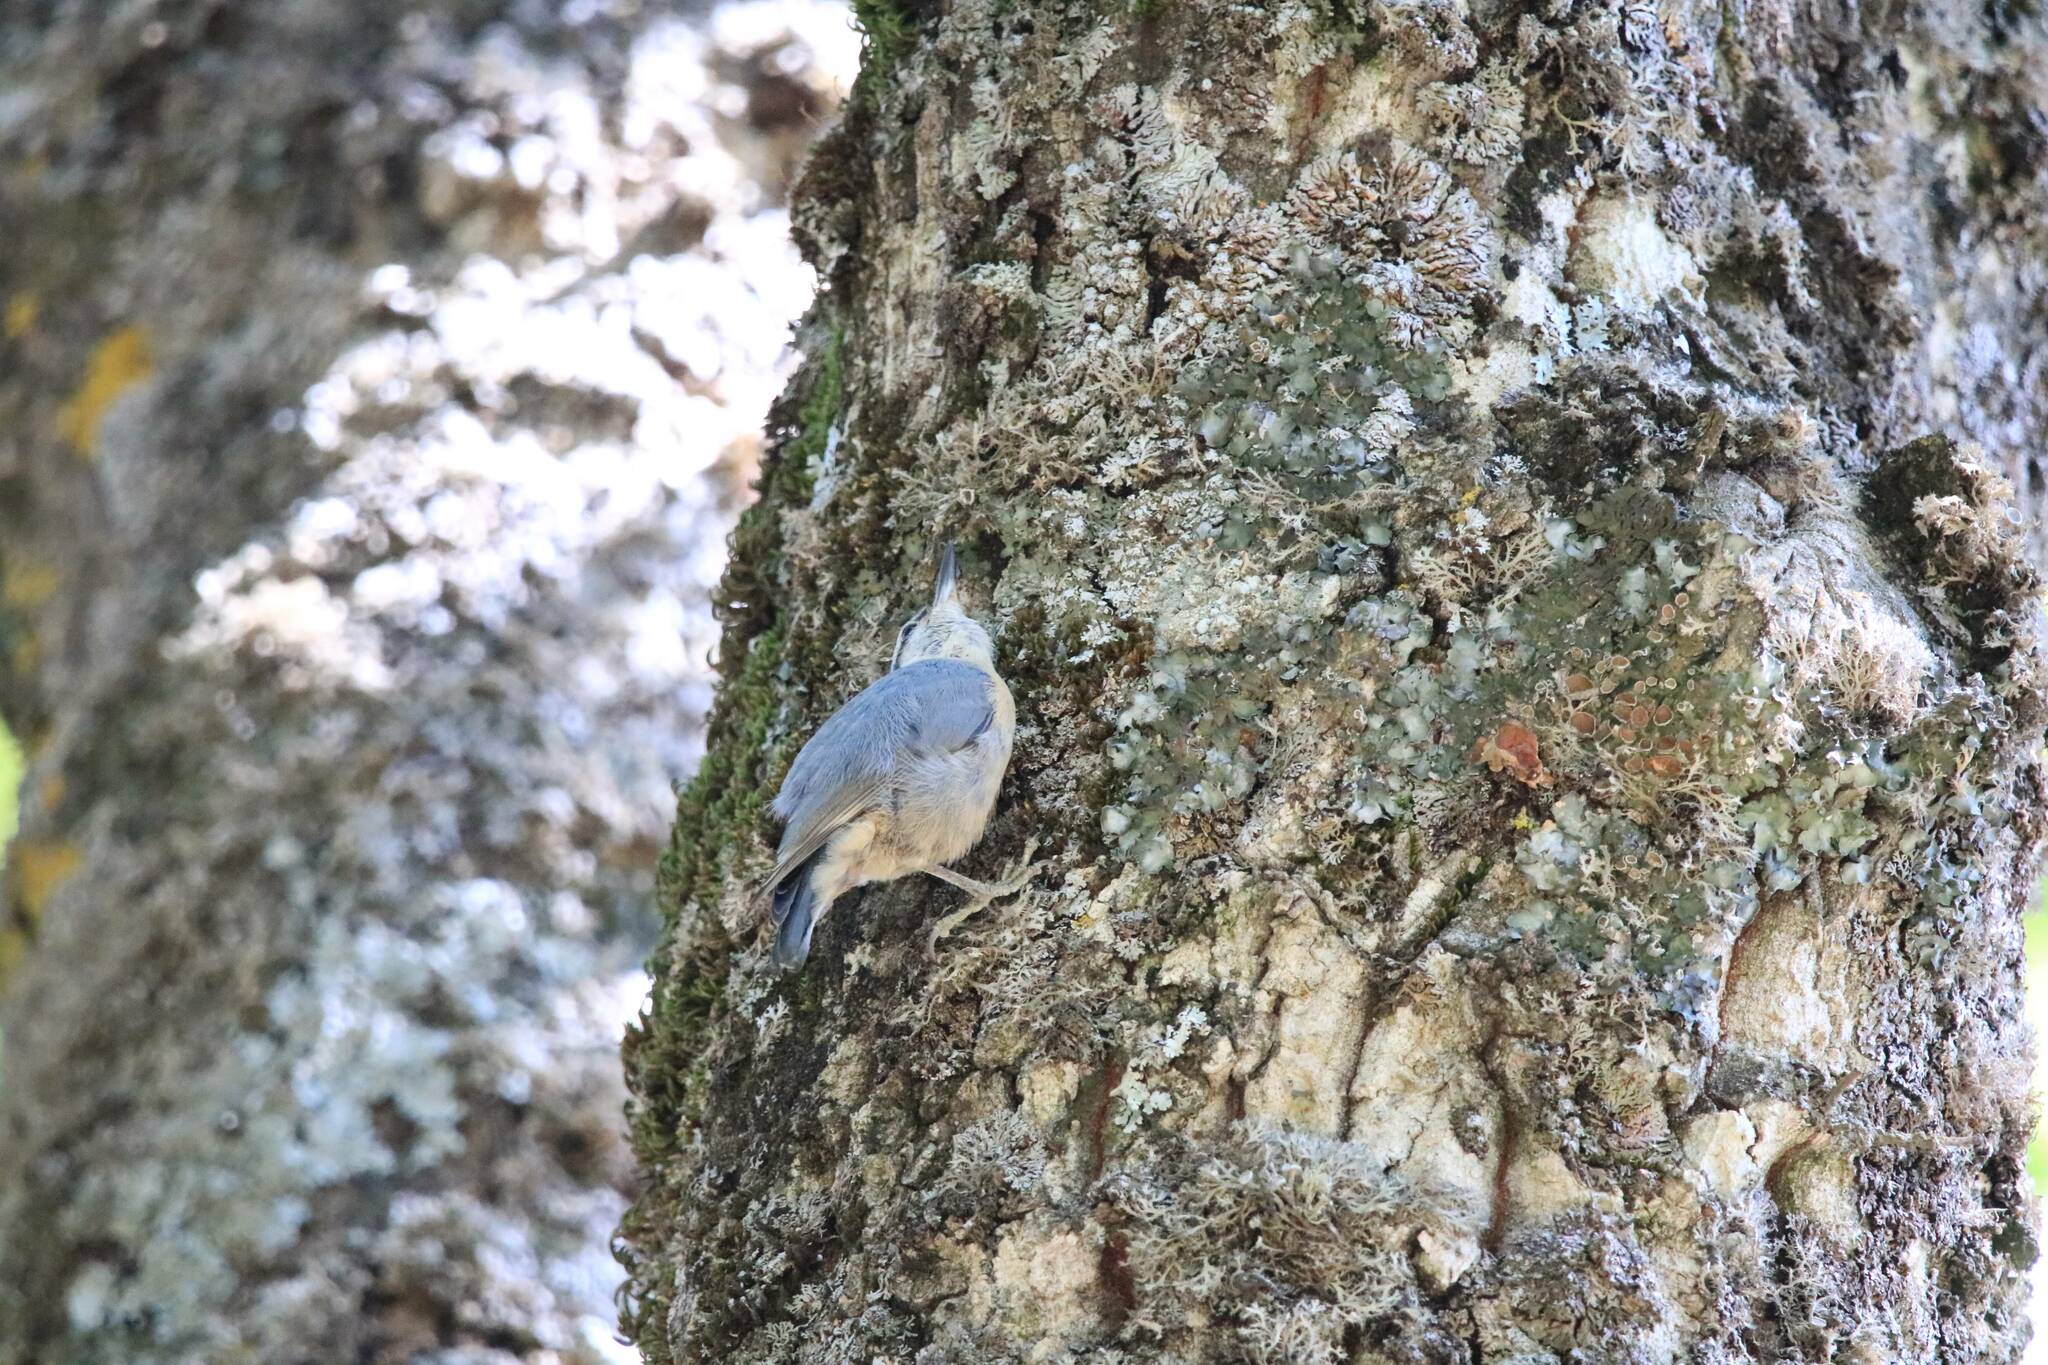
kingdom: Animalia
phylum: Chordata
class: Aves
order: Passeriformes
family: Sittidae
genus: Sitta
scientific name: Sitta ledanti
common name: Algerian nuthatch
